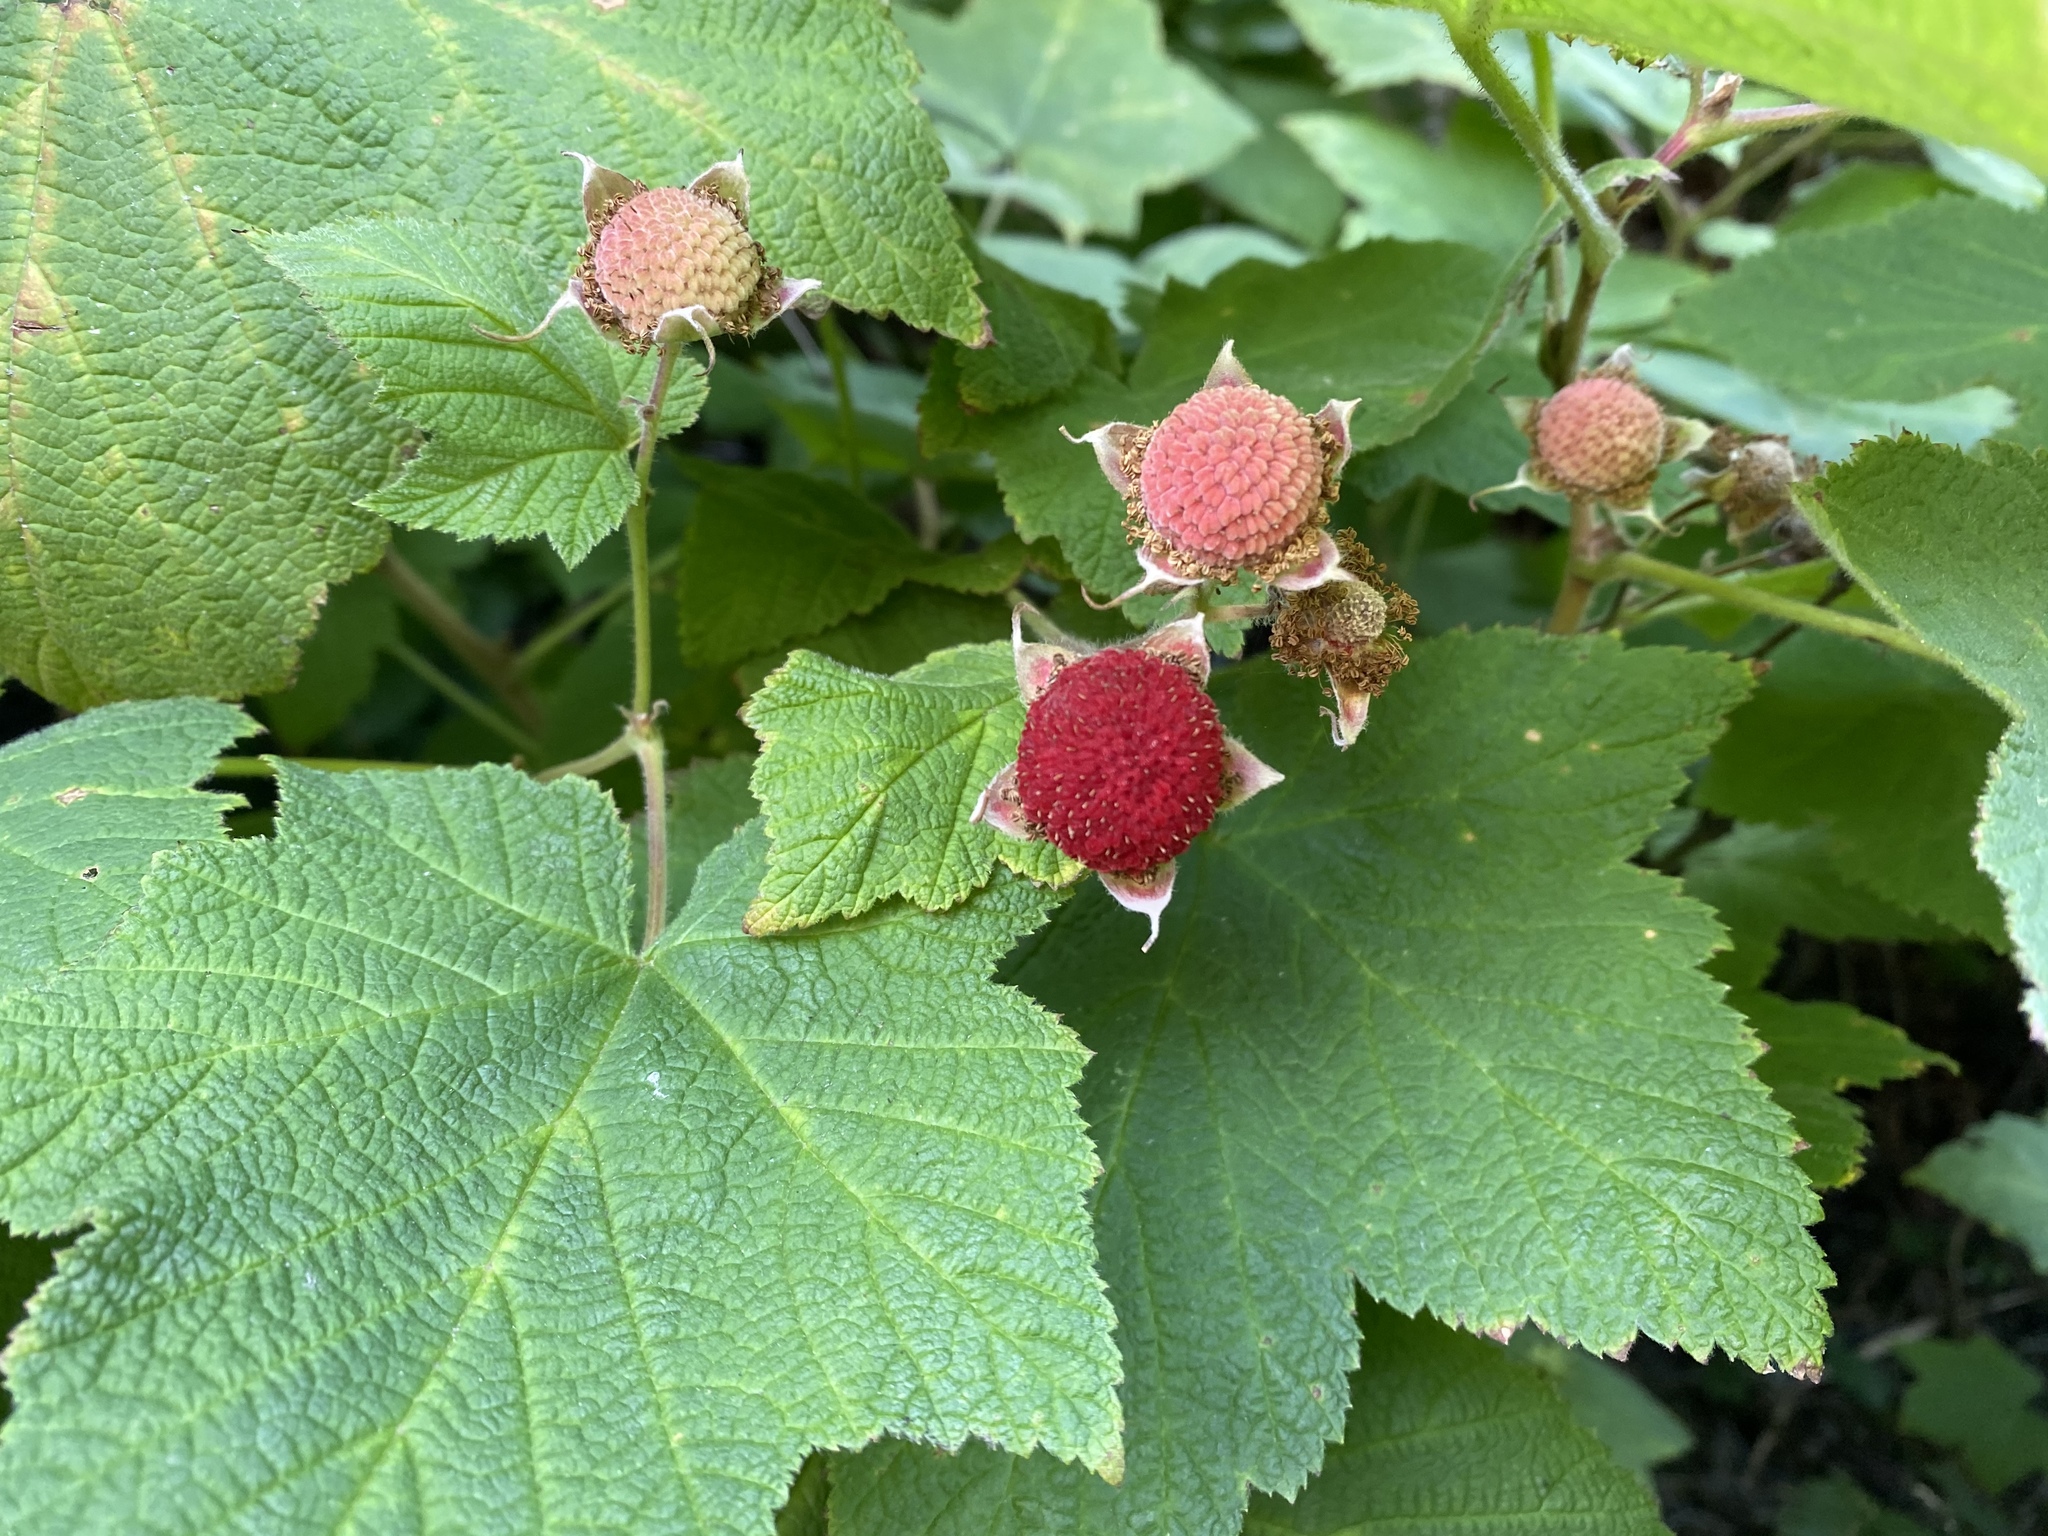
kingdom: Plantae
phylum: Tracheophyta
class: Magnoliopsida
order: Rosales
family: Rosaceae
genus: Rubus
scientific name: Rubus parviflorus
